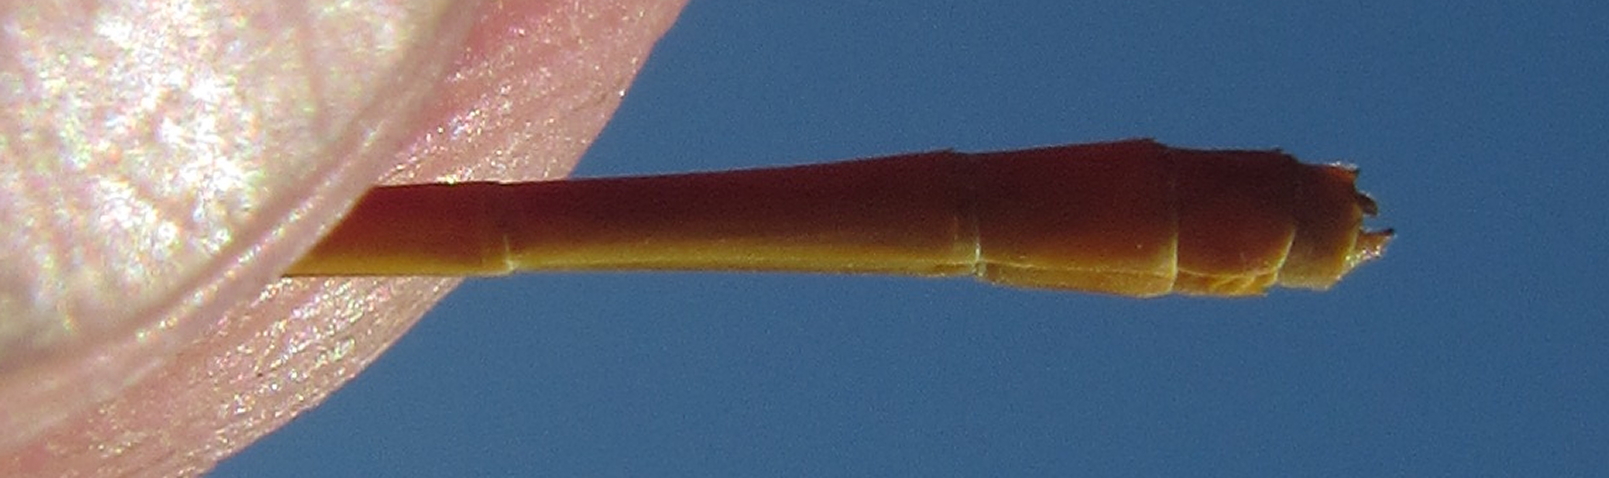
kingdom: Animalia
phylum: Arthropoda
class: Insecta
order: Odonata
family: Coenagrionidae
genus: Ceriagrion
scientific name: Ceriagrion glabrum
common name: Common pond damsel
